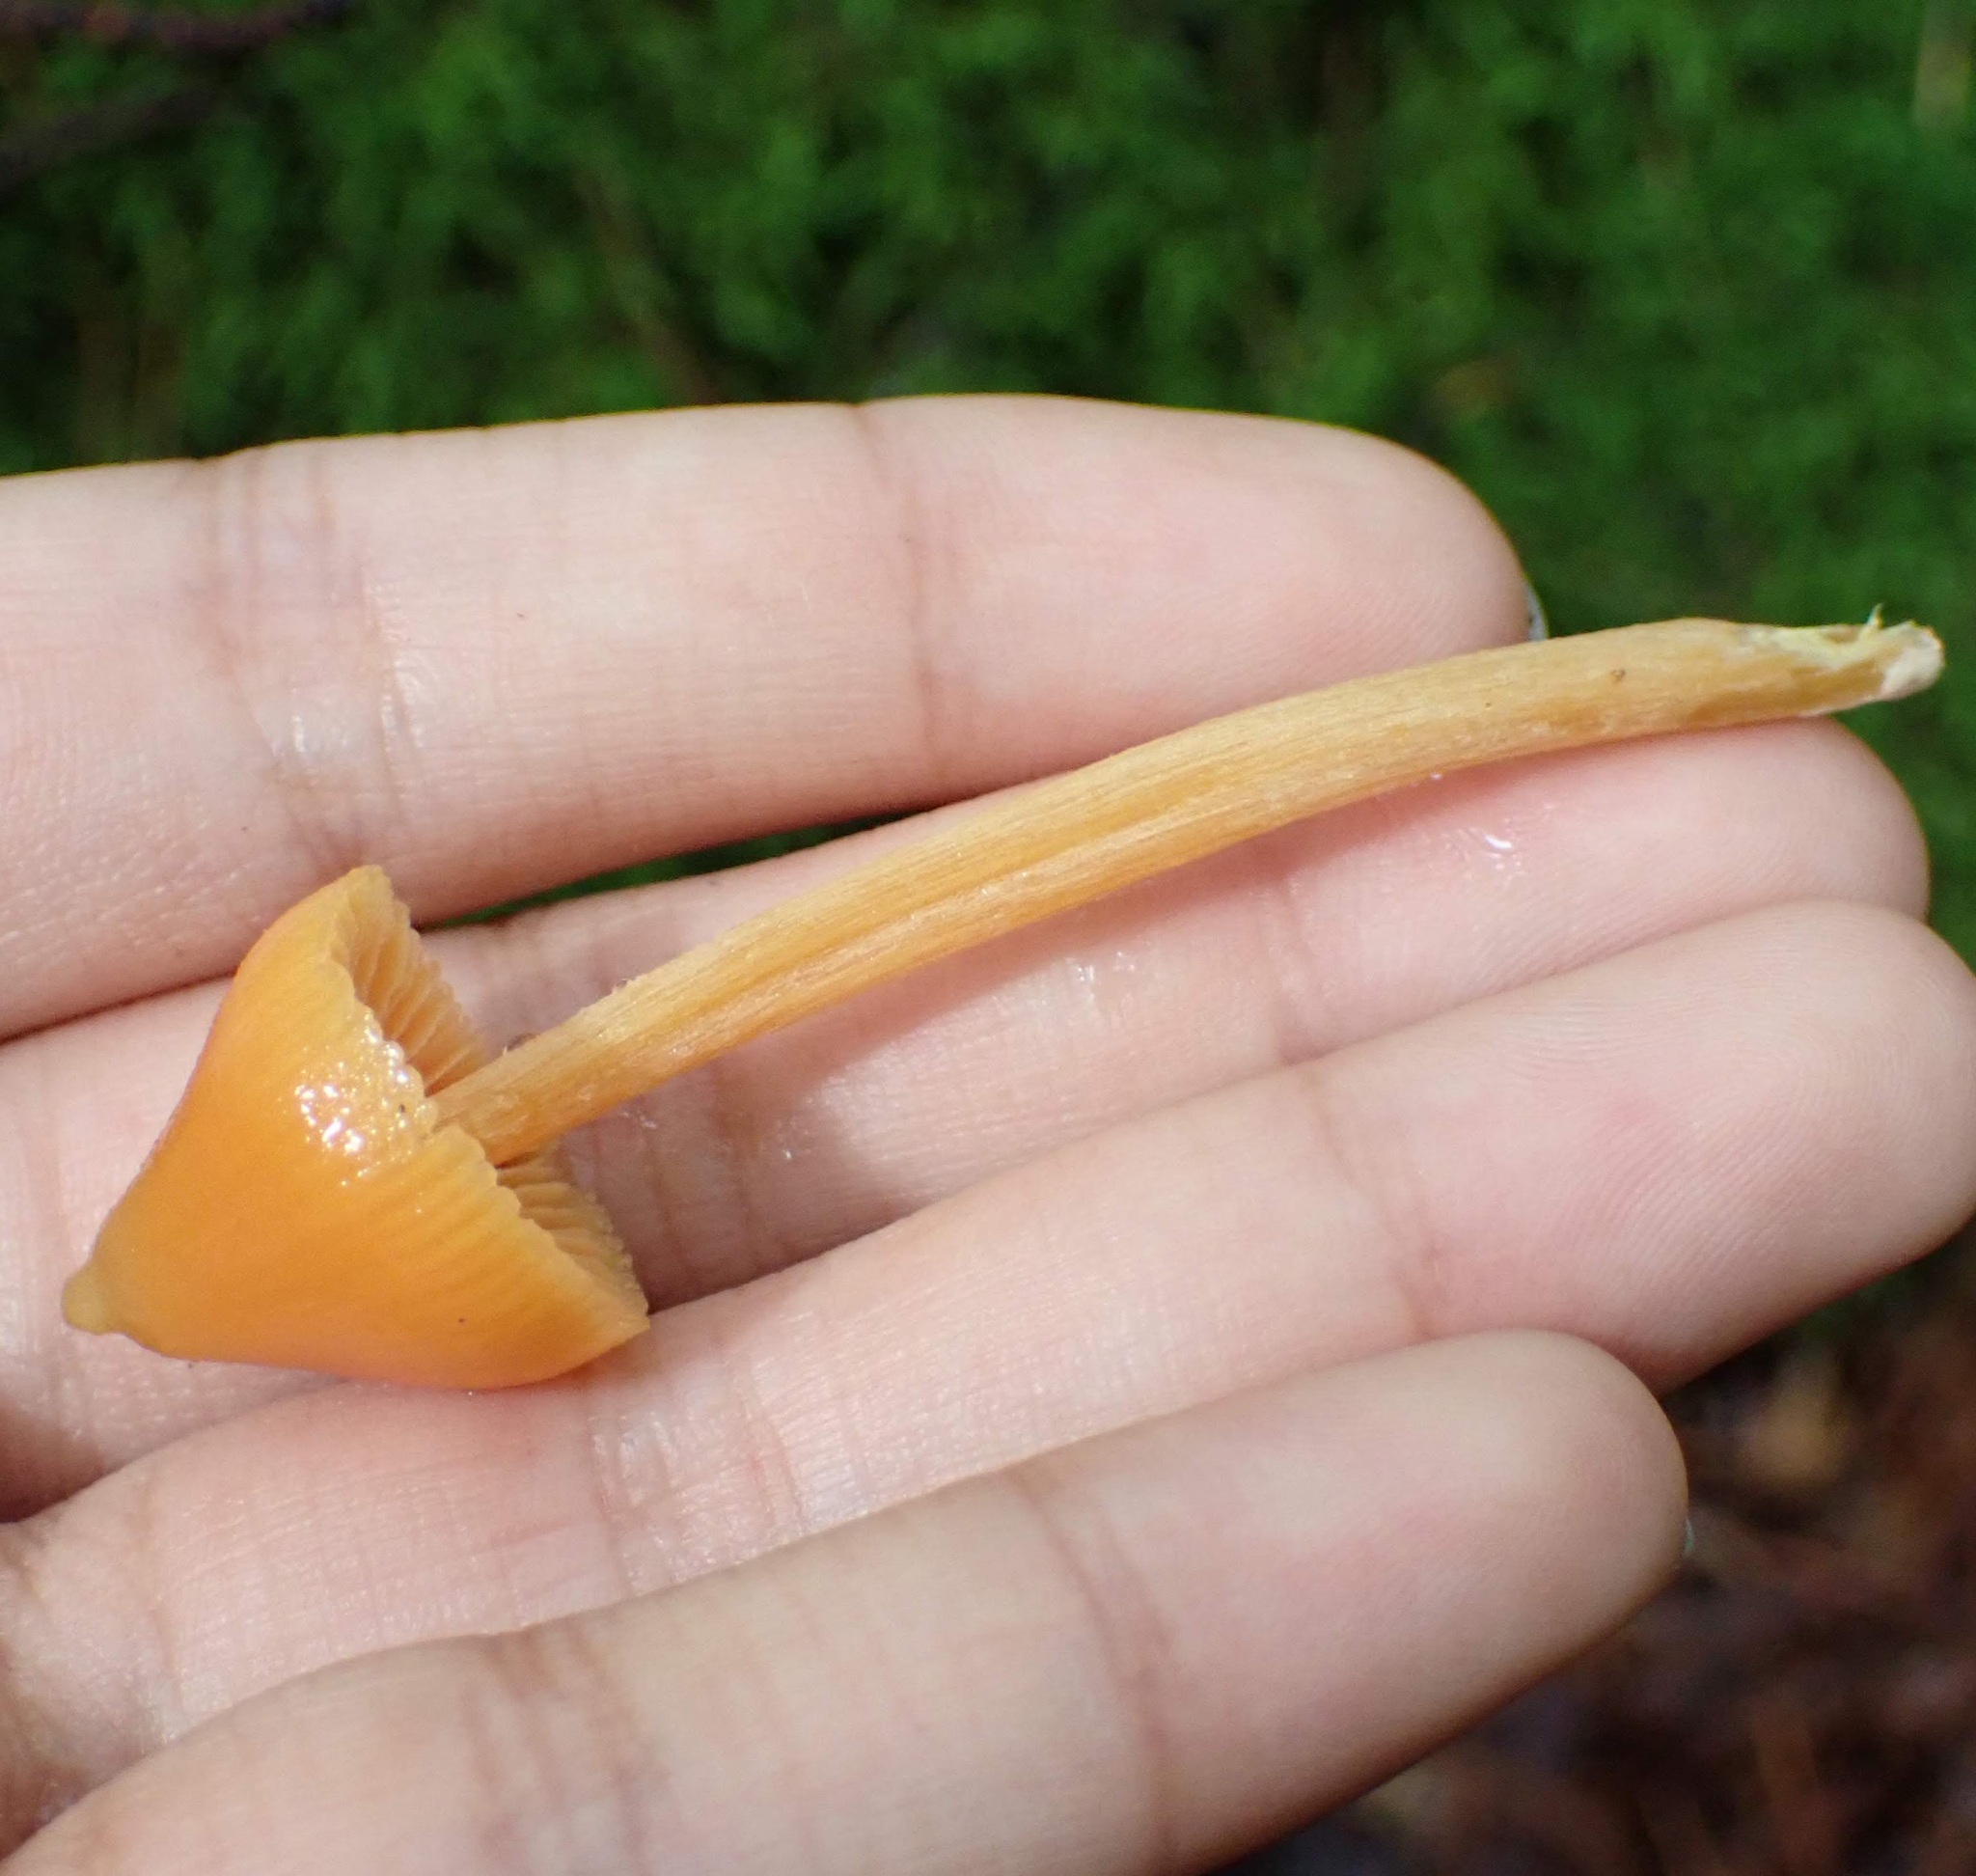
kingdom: Fungi
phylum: Basidiomycota
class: Agaricomycetes
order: Agaricales
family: Entolomataceae
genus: Entoloma
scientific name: Entoloma quadratum
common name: Salmon pinkgill
